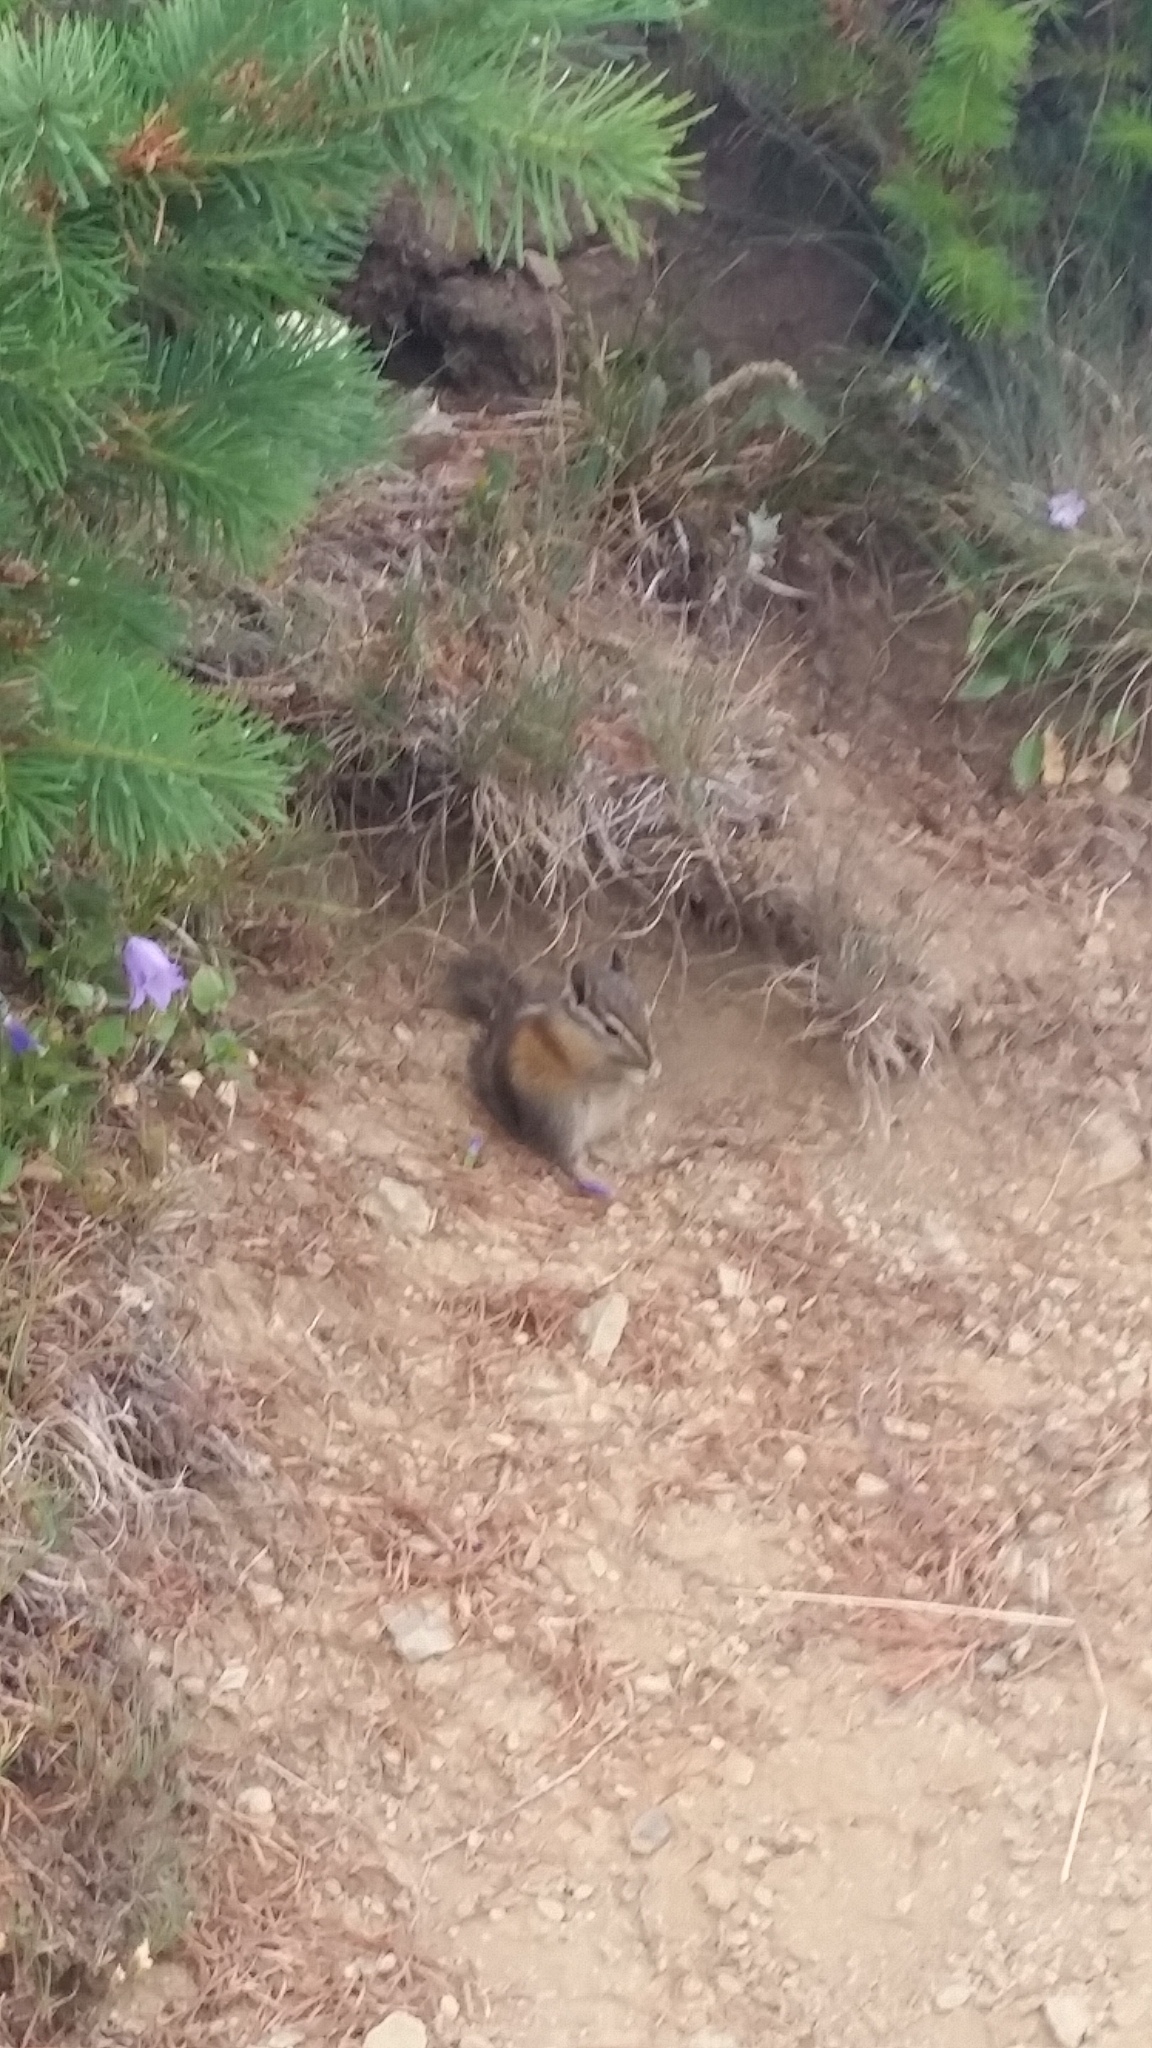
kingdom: Animalia
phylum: Chordata
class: Mammalia
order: Rodentia
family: Sciuridae
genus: Tamias
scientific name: Tamias amoenus
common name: Yellow-pine chipmunk
